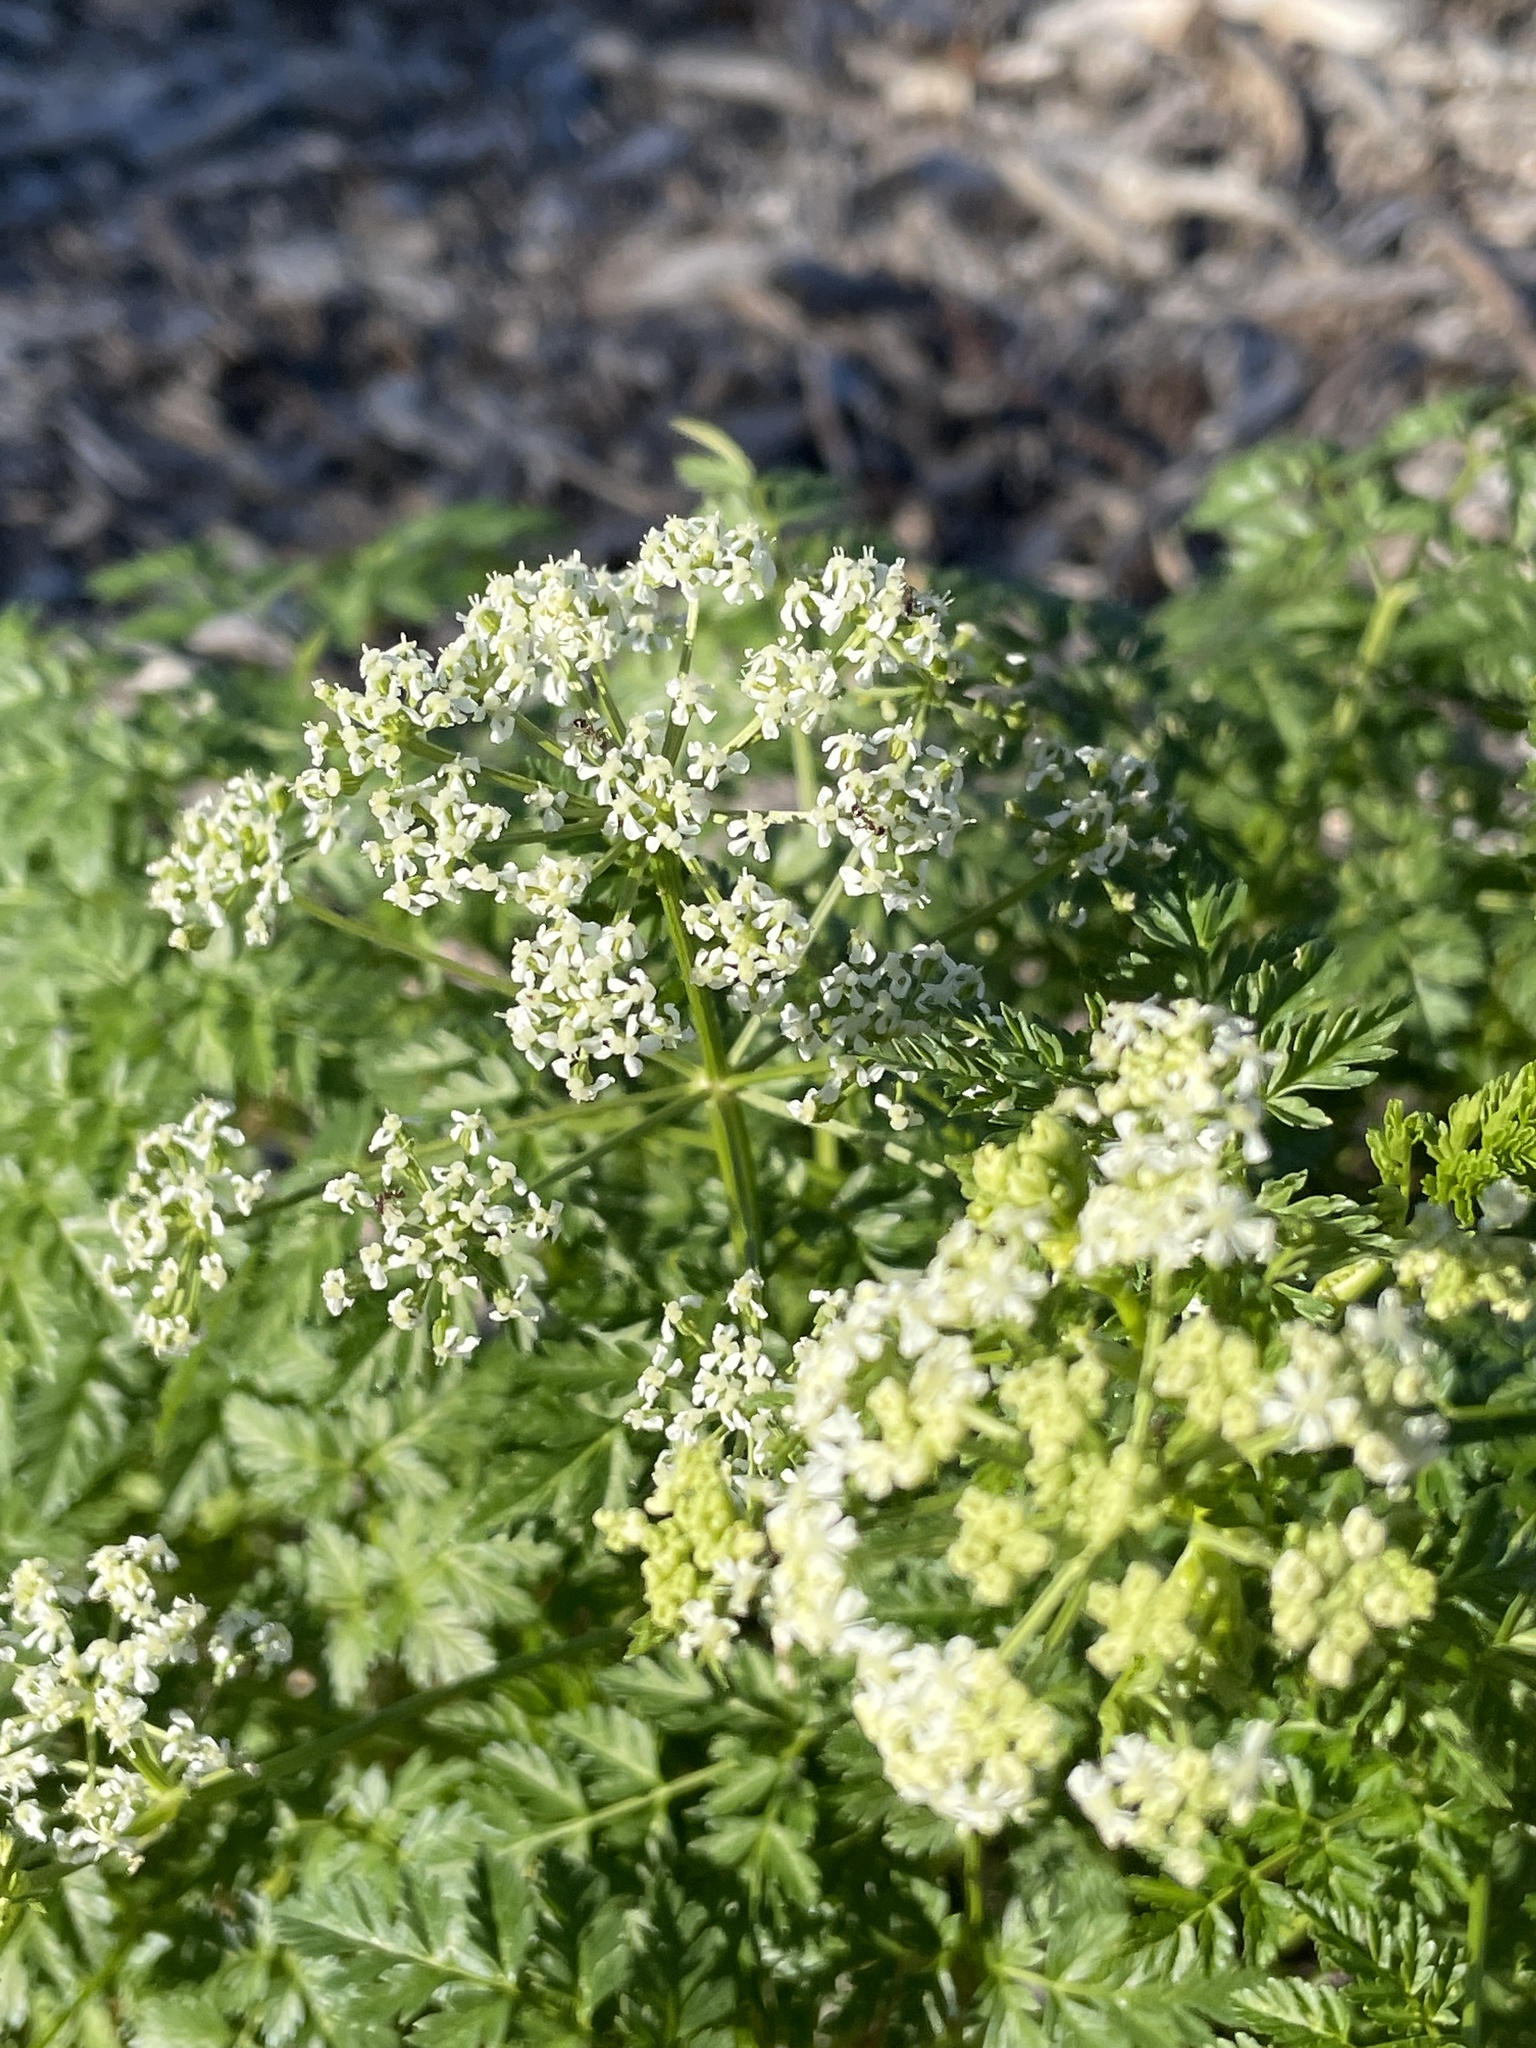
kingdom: Plantae
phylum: Tracheophyta
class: Magnoliopsida
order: Apiales
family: Apiaceae
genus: Conium
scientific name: Conium maculatum
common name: Hemlock
